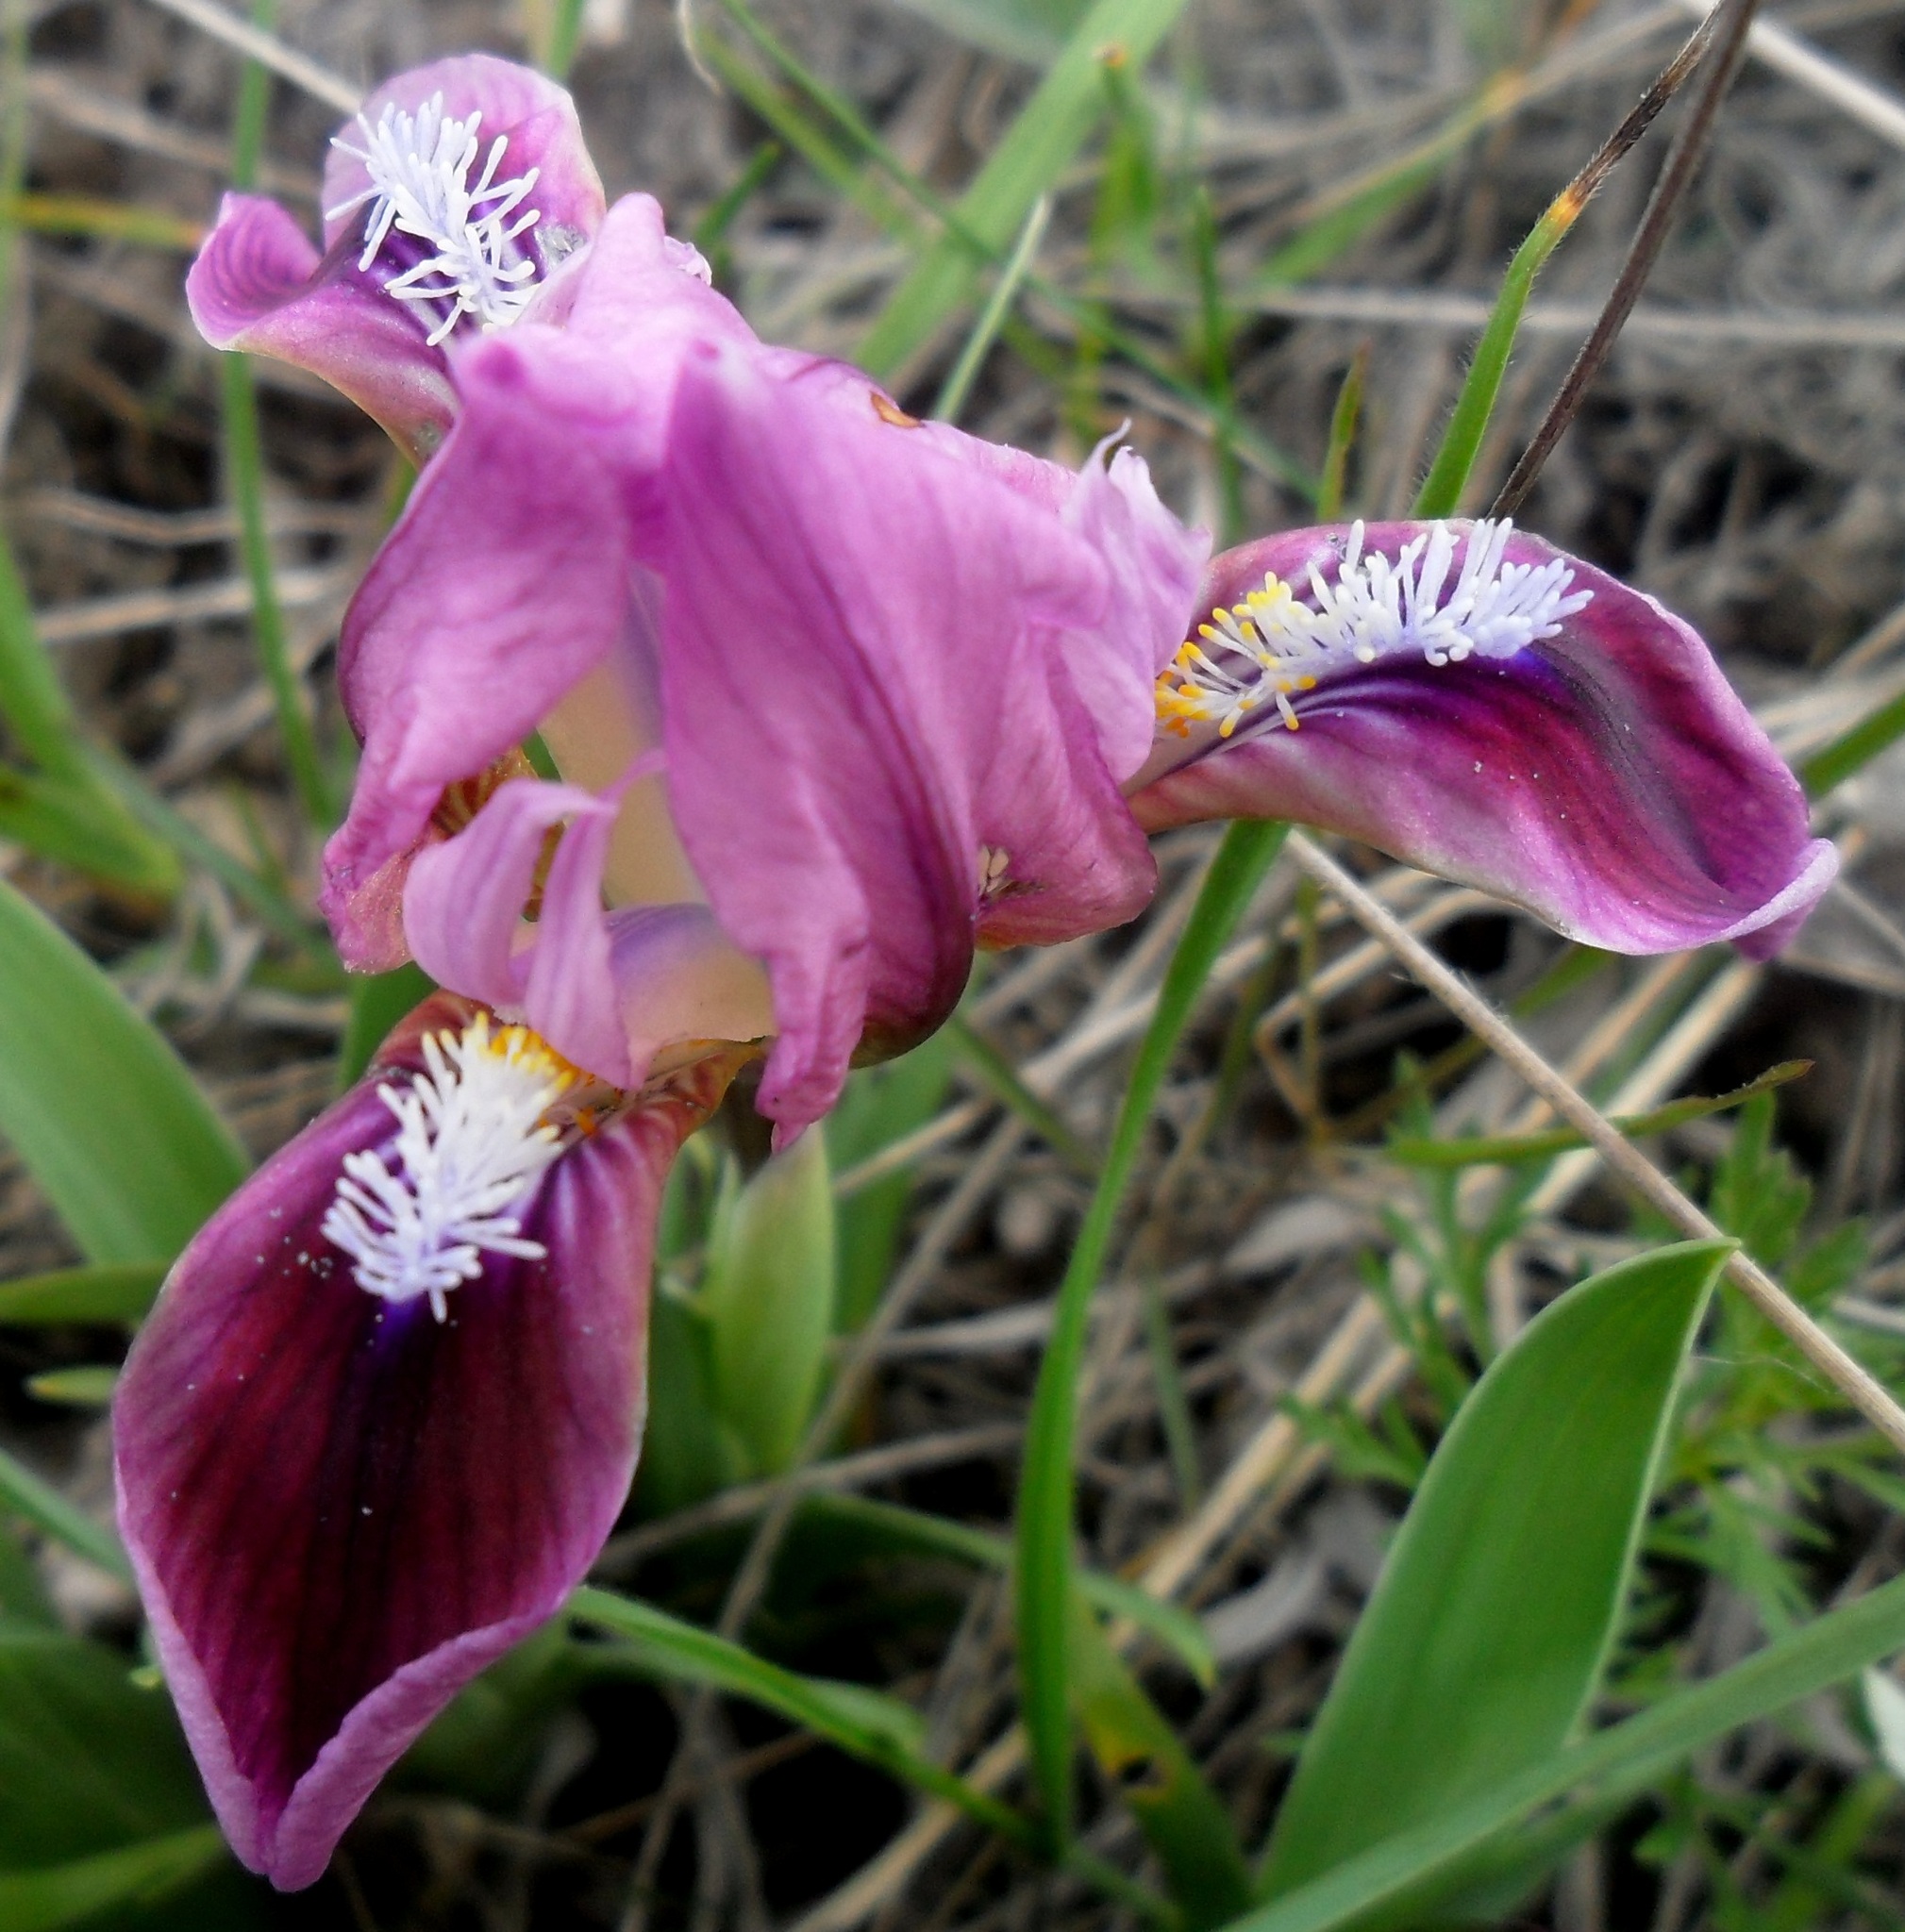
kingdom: Plantae
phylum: Tracheophyta
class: Liliopsida
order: Asparagales
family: Iridaceae
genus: Iris
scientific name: Iris pumila
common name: Dwarf iris
